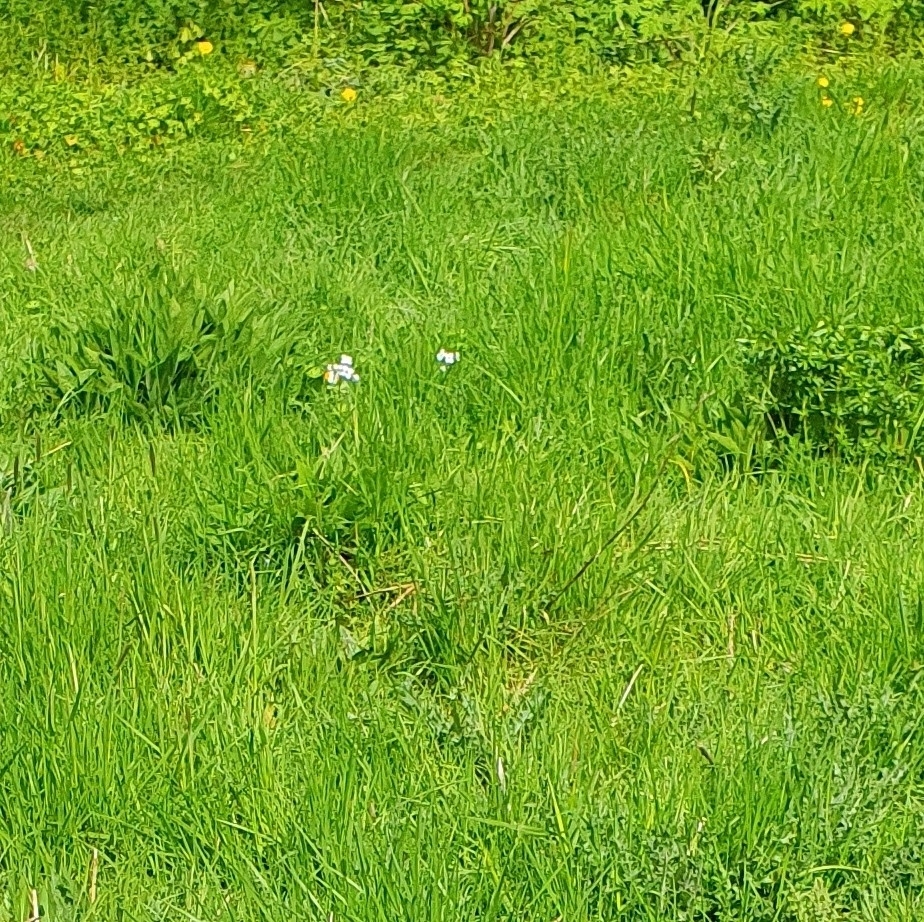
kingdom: Animalia
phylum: Arthropoda
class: Insecta
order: Lepidoptera
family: Pieridae
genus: Anthocharis
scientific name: Anthocharis cardamines
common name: Orange-tip
